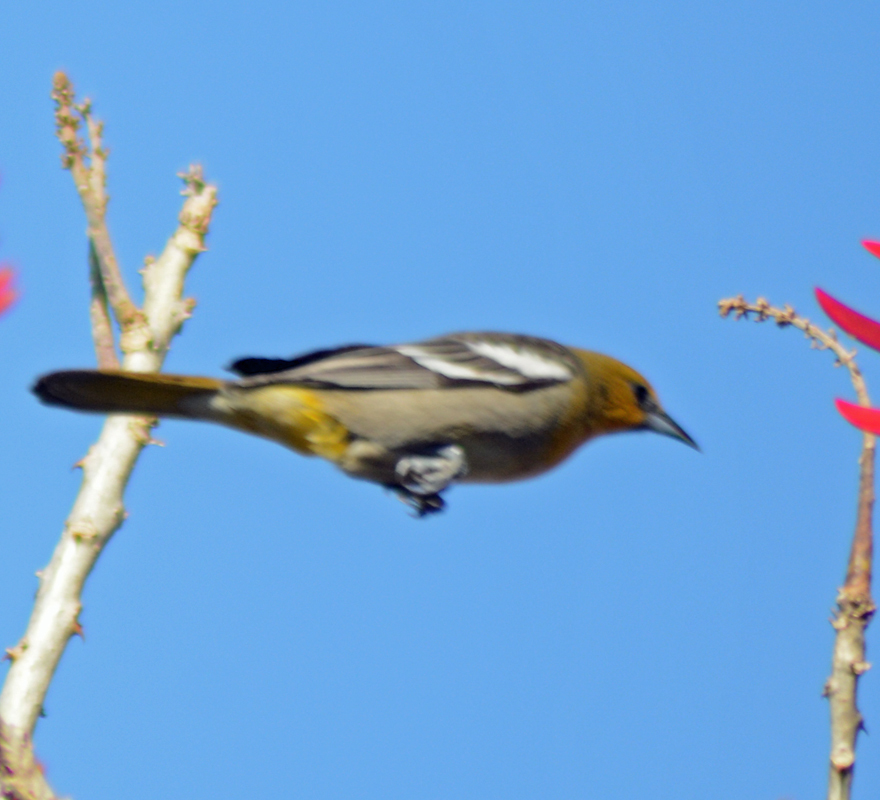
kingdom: Animalia
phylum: Chordata
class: Aves
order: Passeriformes
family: Icteridae
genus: Icterus
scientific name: Icterus abeillei
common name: Black-backed oriole
